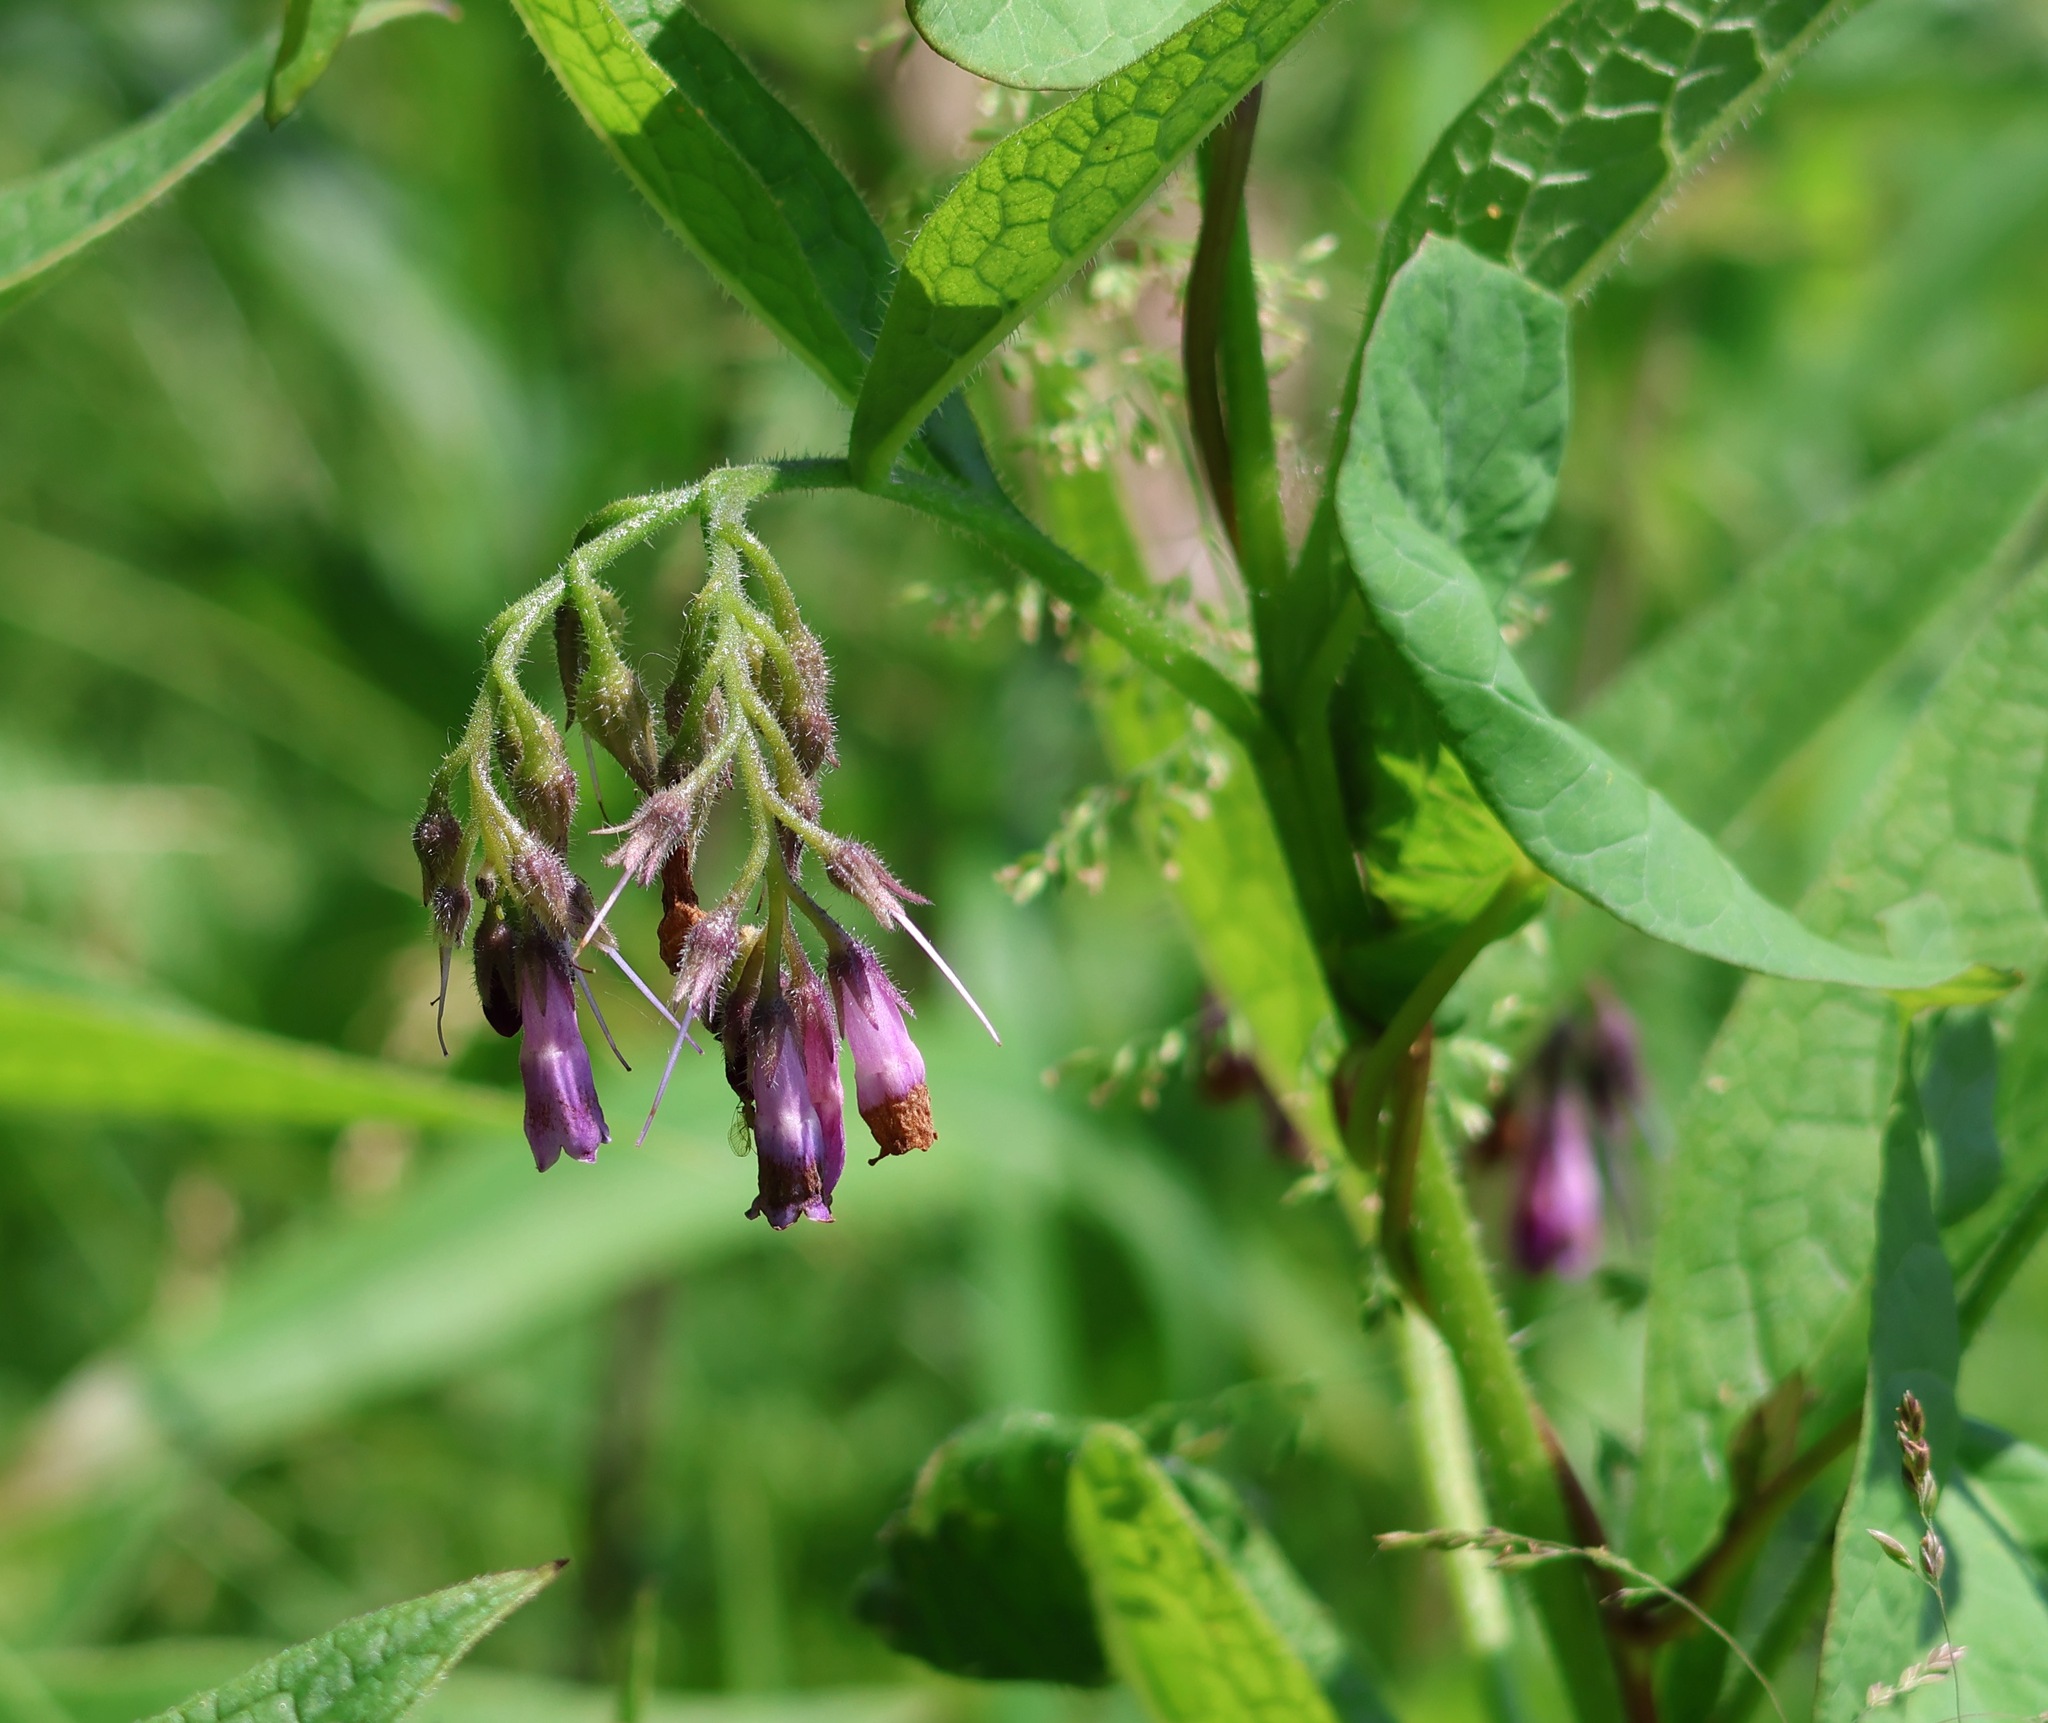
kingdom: Plantae
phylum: Tracheophyta
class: Magnoliopsida
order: Boraginales
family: Boraginaceae
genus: Symphytum
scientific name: Symphytum officinale
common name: Common comfrey
